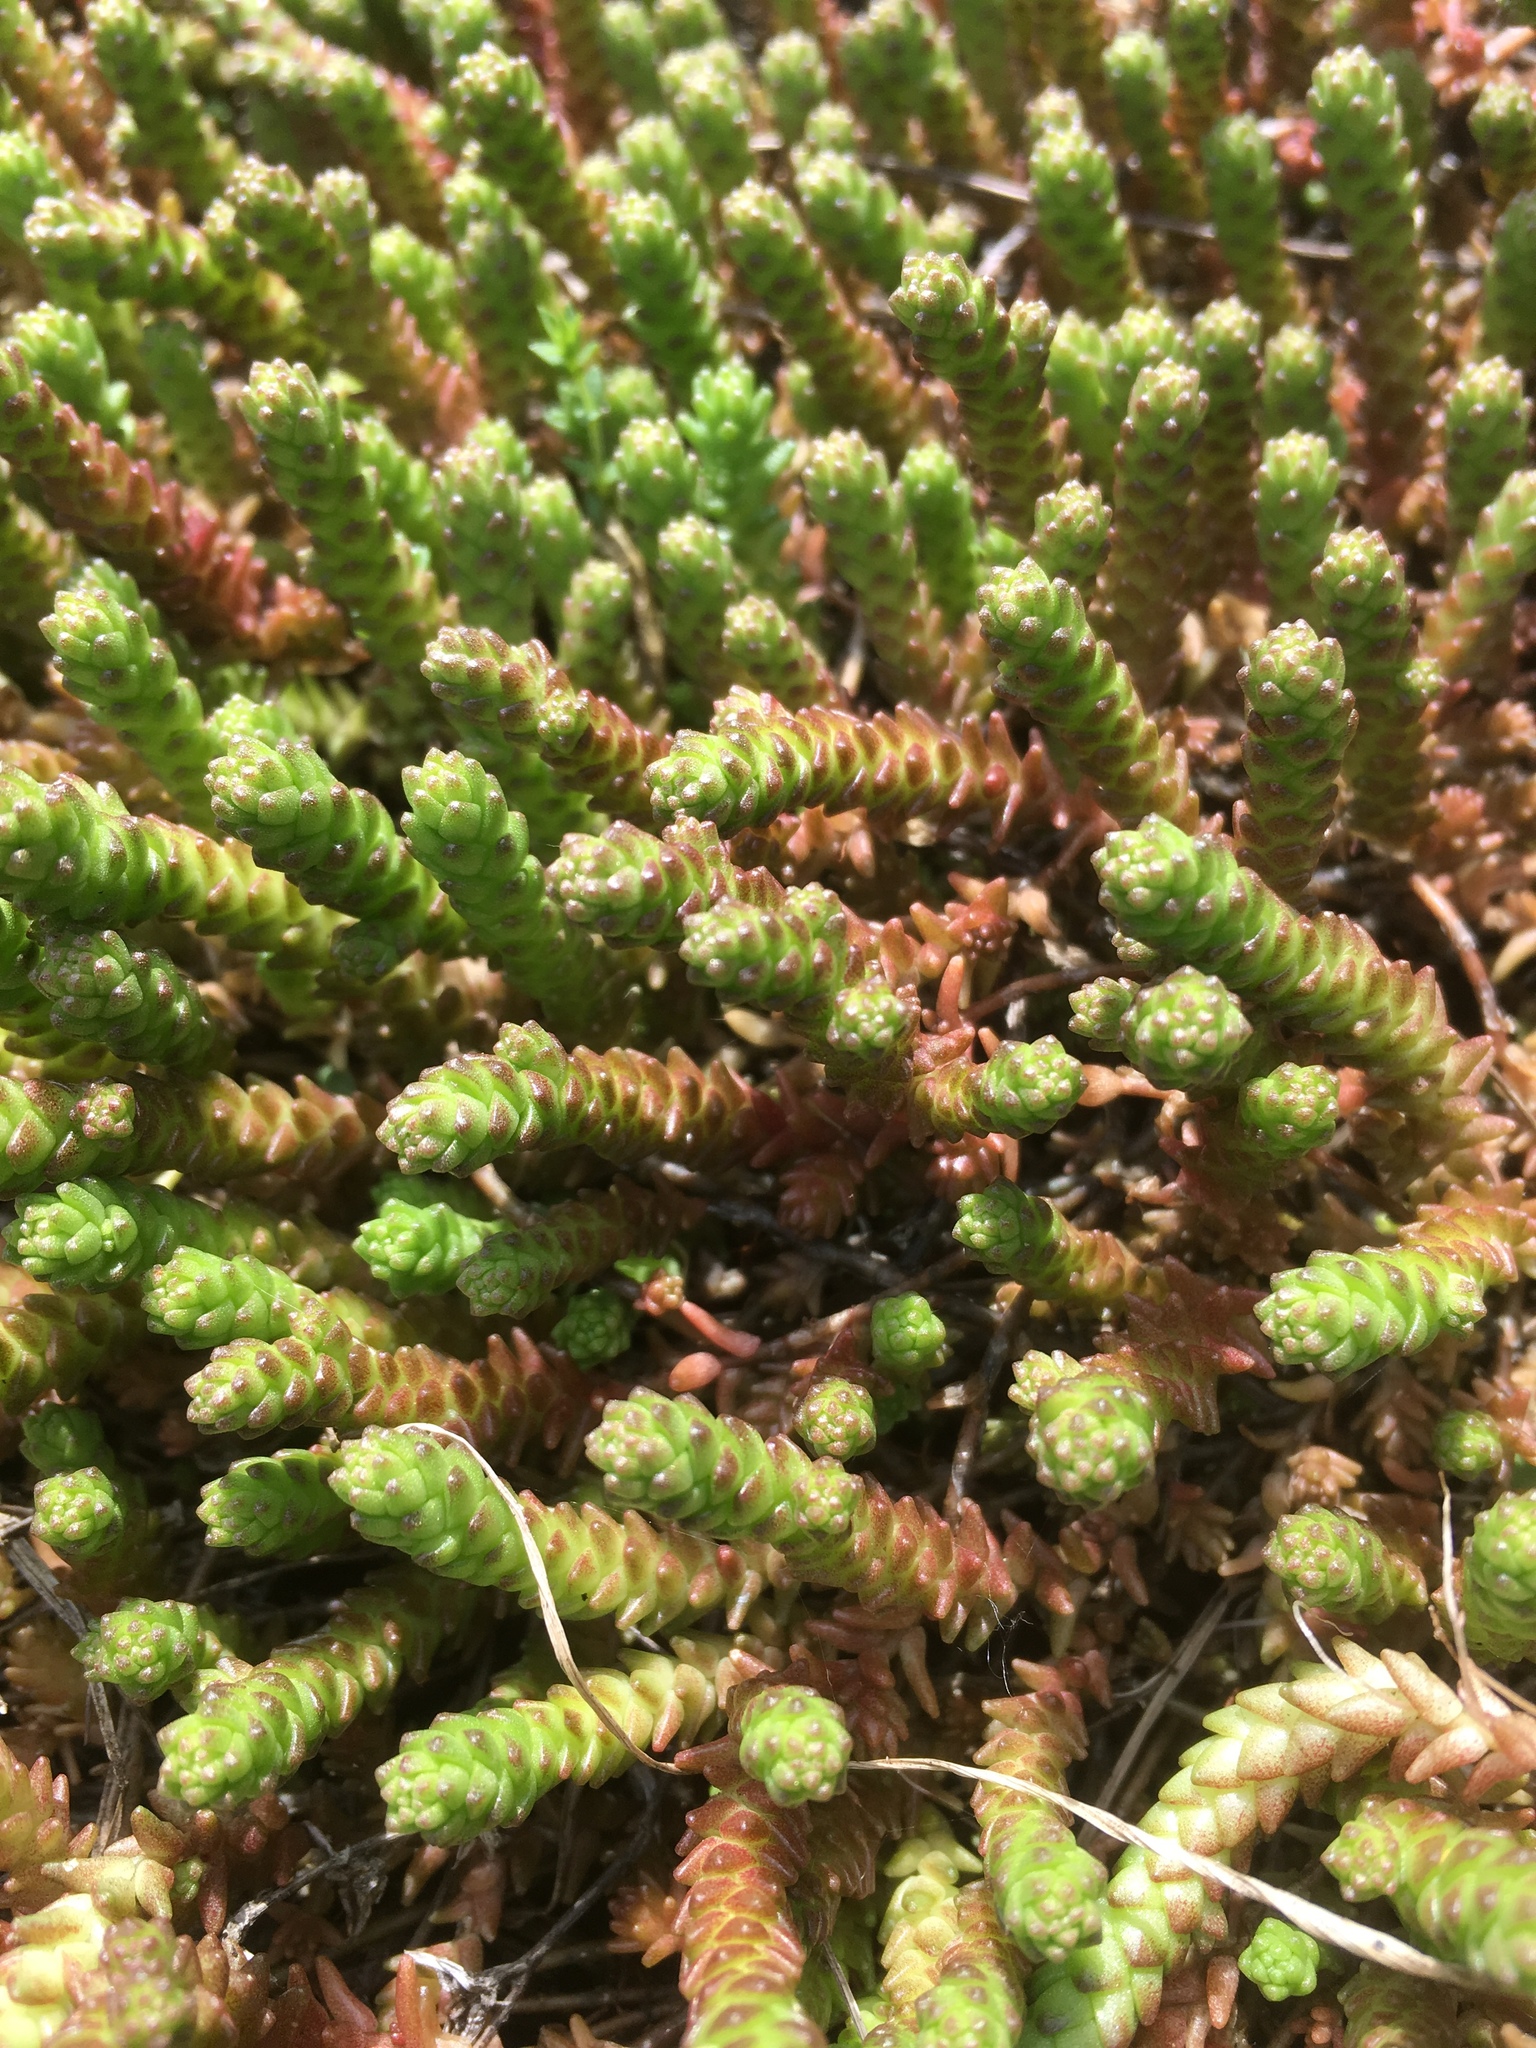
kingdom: Plantae
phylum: Tracheophyta
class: Magnoliopsida
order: Saxifragales
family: Crassulaceae
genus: Sedum
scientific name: Sedum acre
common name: Biting stonecrop
